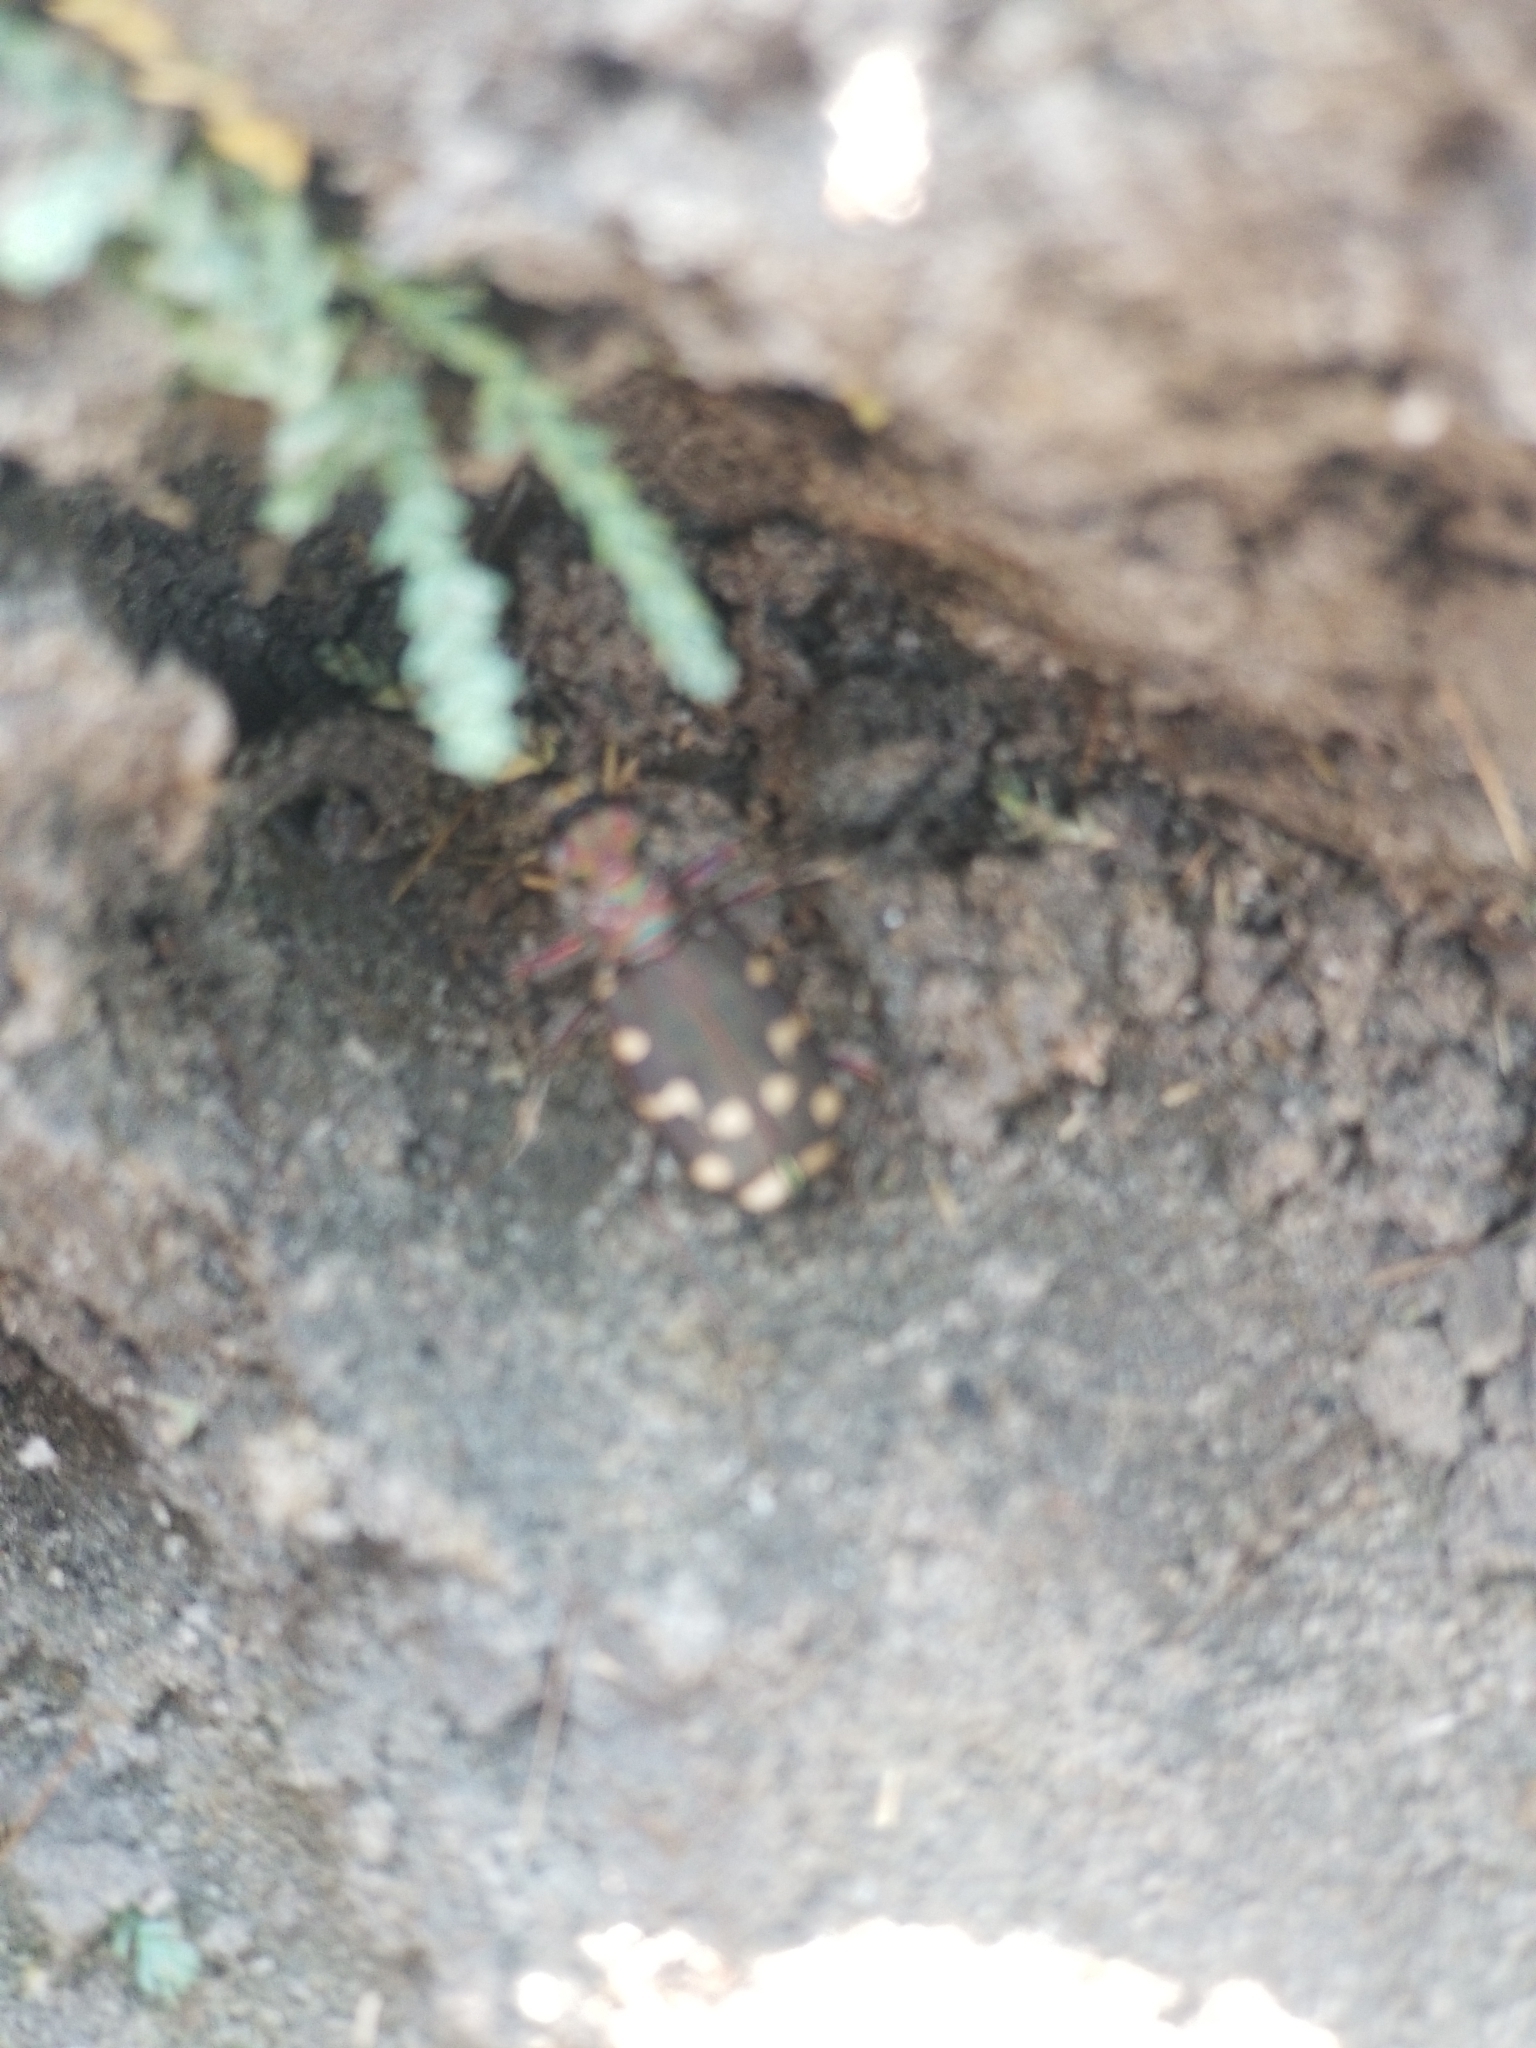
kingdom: Animalia
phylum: Arthropoda
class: Insecta
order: Coleoptera
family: Carabidae
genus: Cicindela
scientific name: Cicindela oregona
